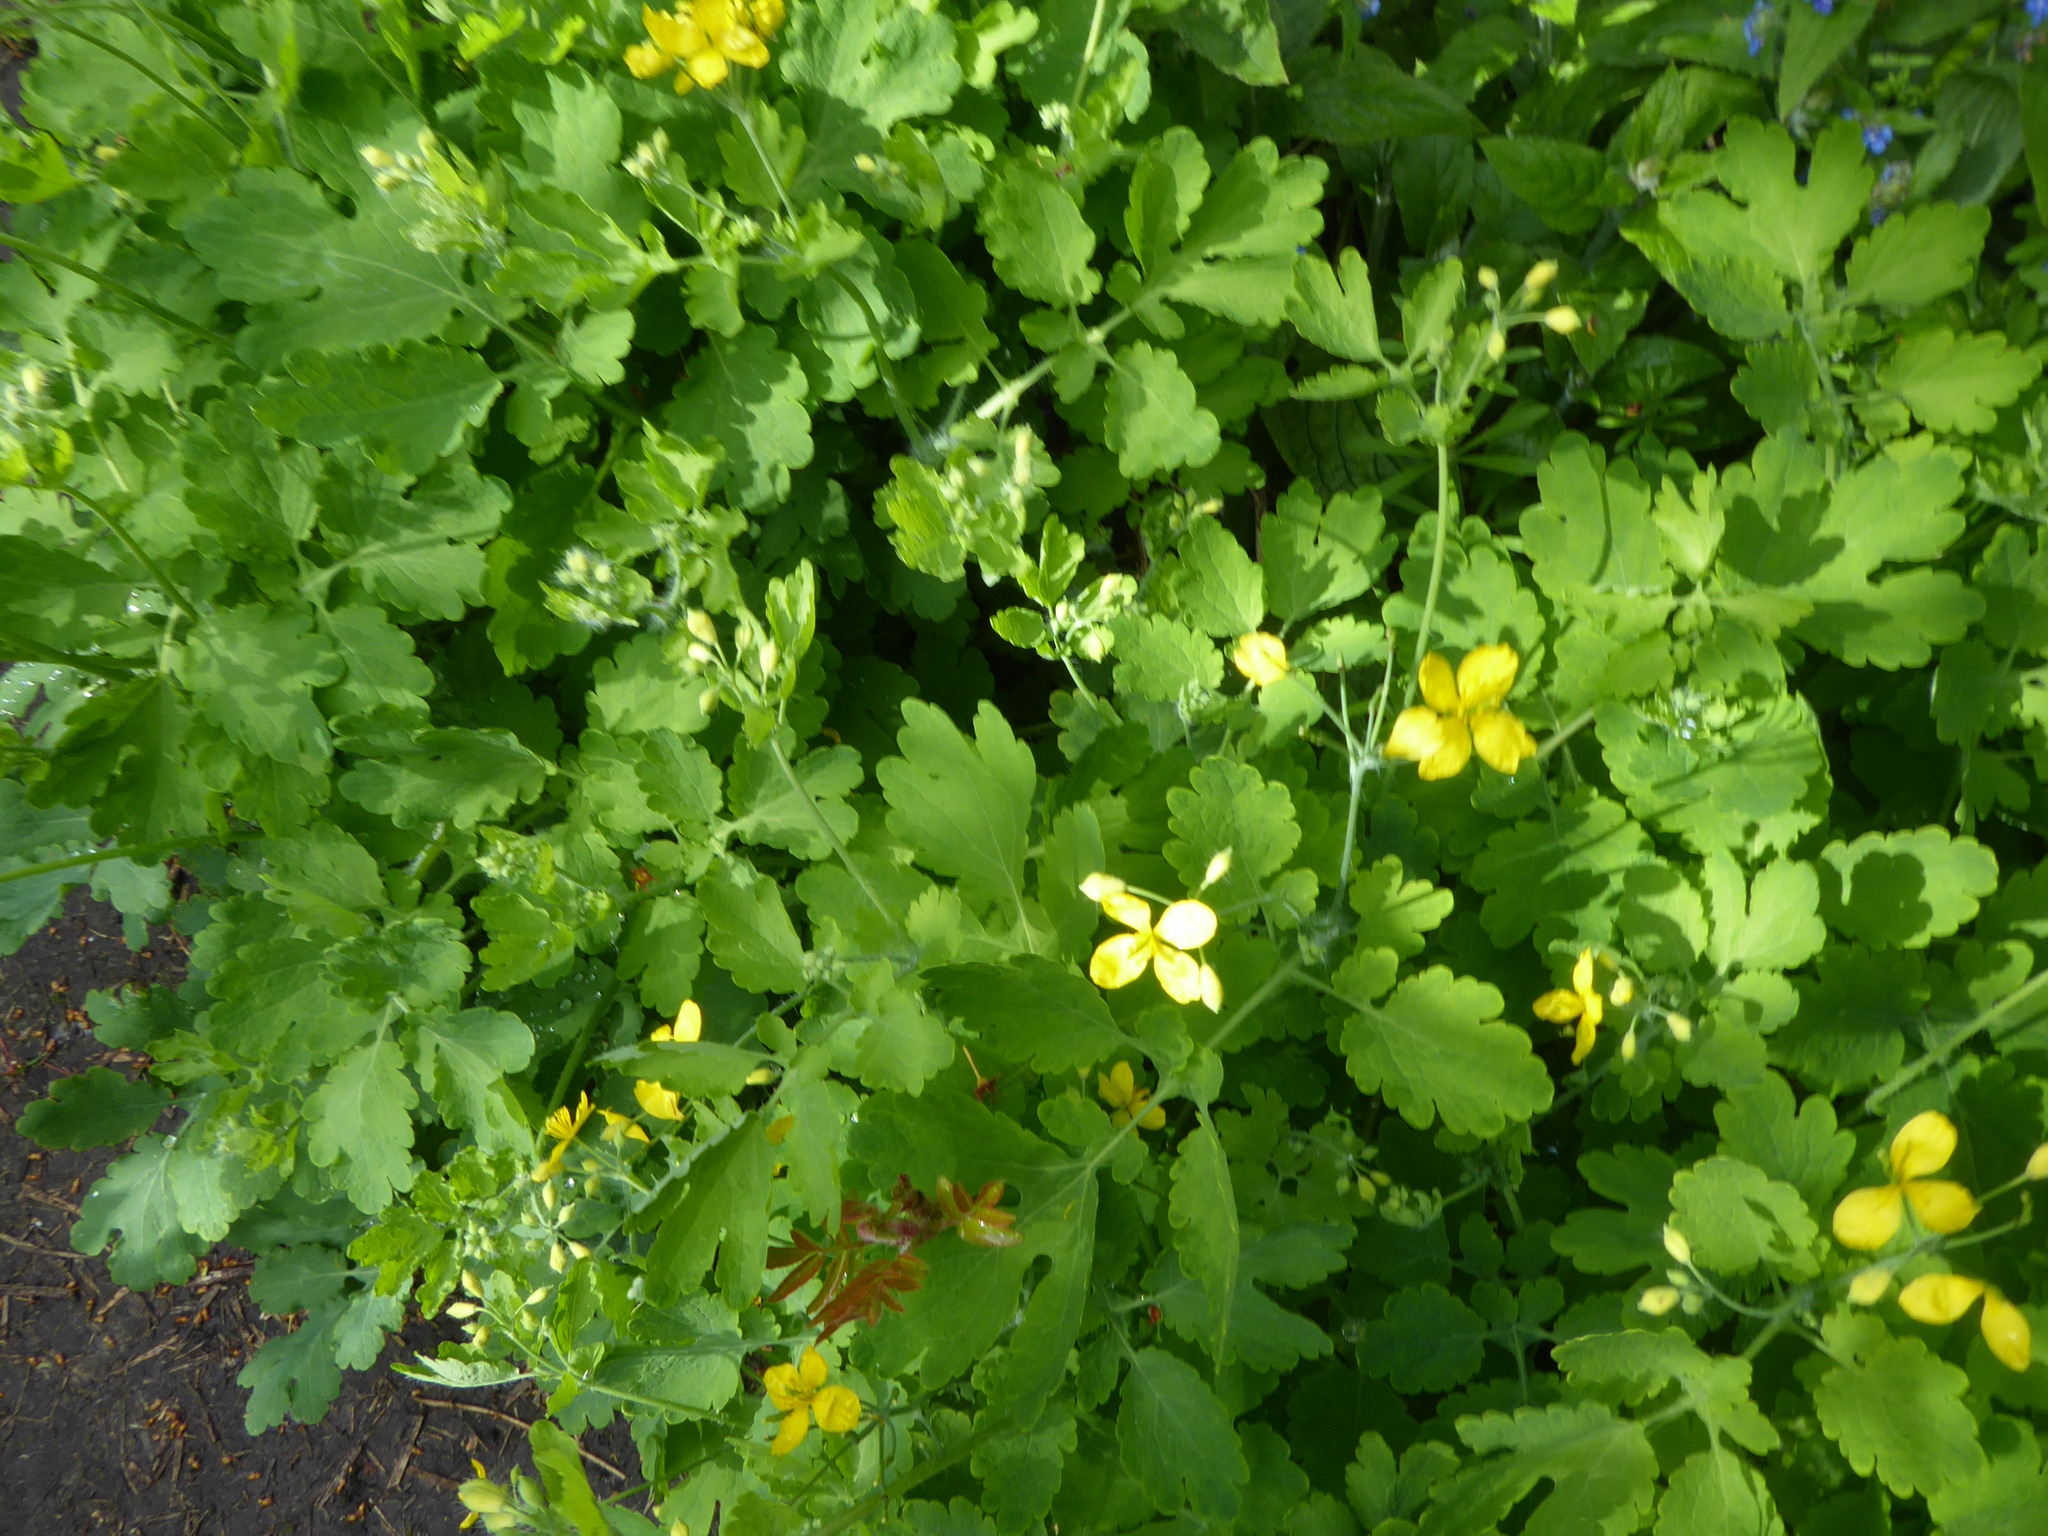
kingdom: Plantae
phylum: Tracheophyta
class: Magnoliopsida
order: Ranunculales
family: Papaveraceae
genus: Chelidonium
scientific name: Chelidonium majus
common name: Greater celandine
